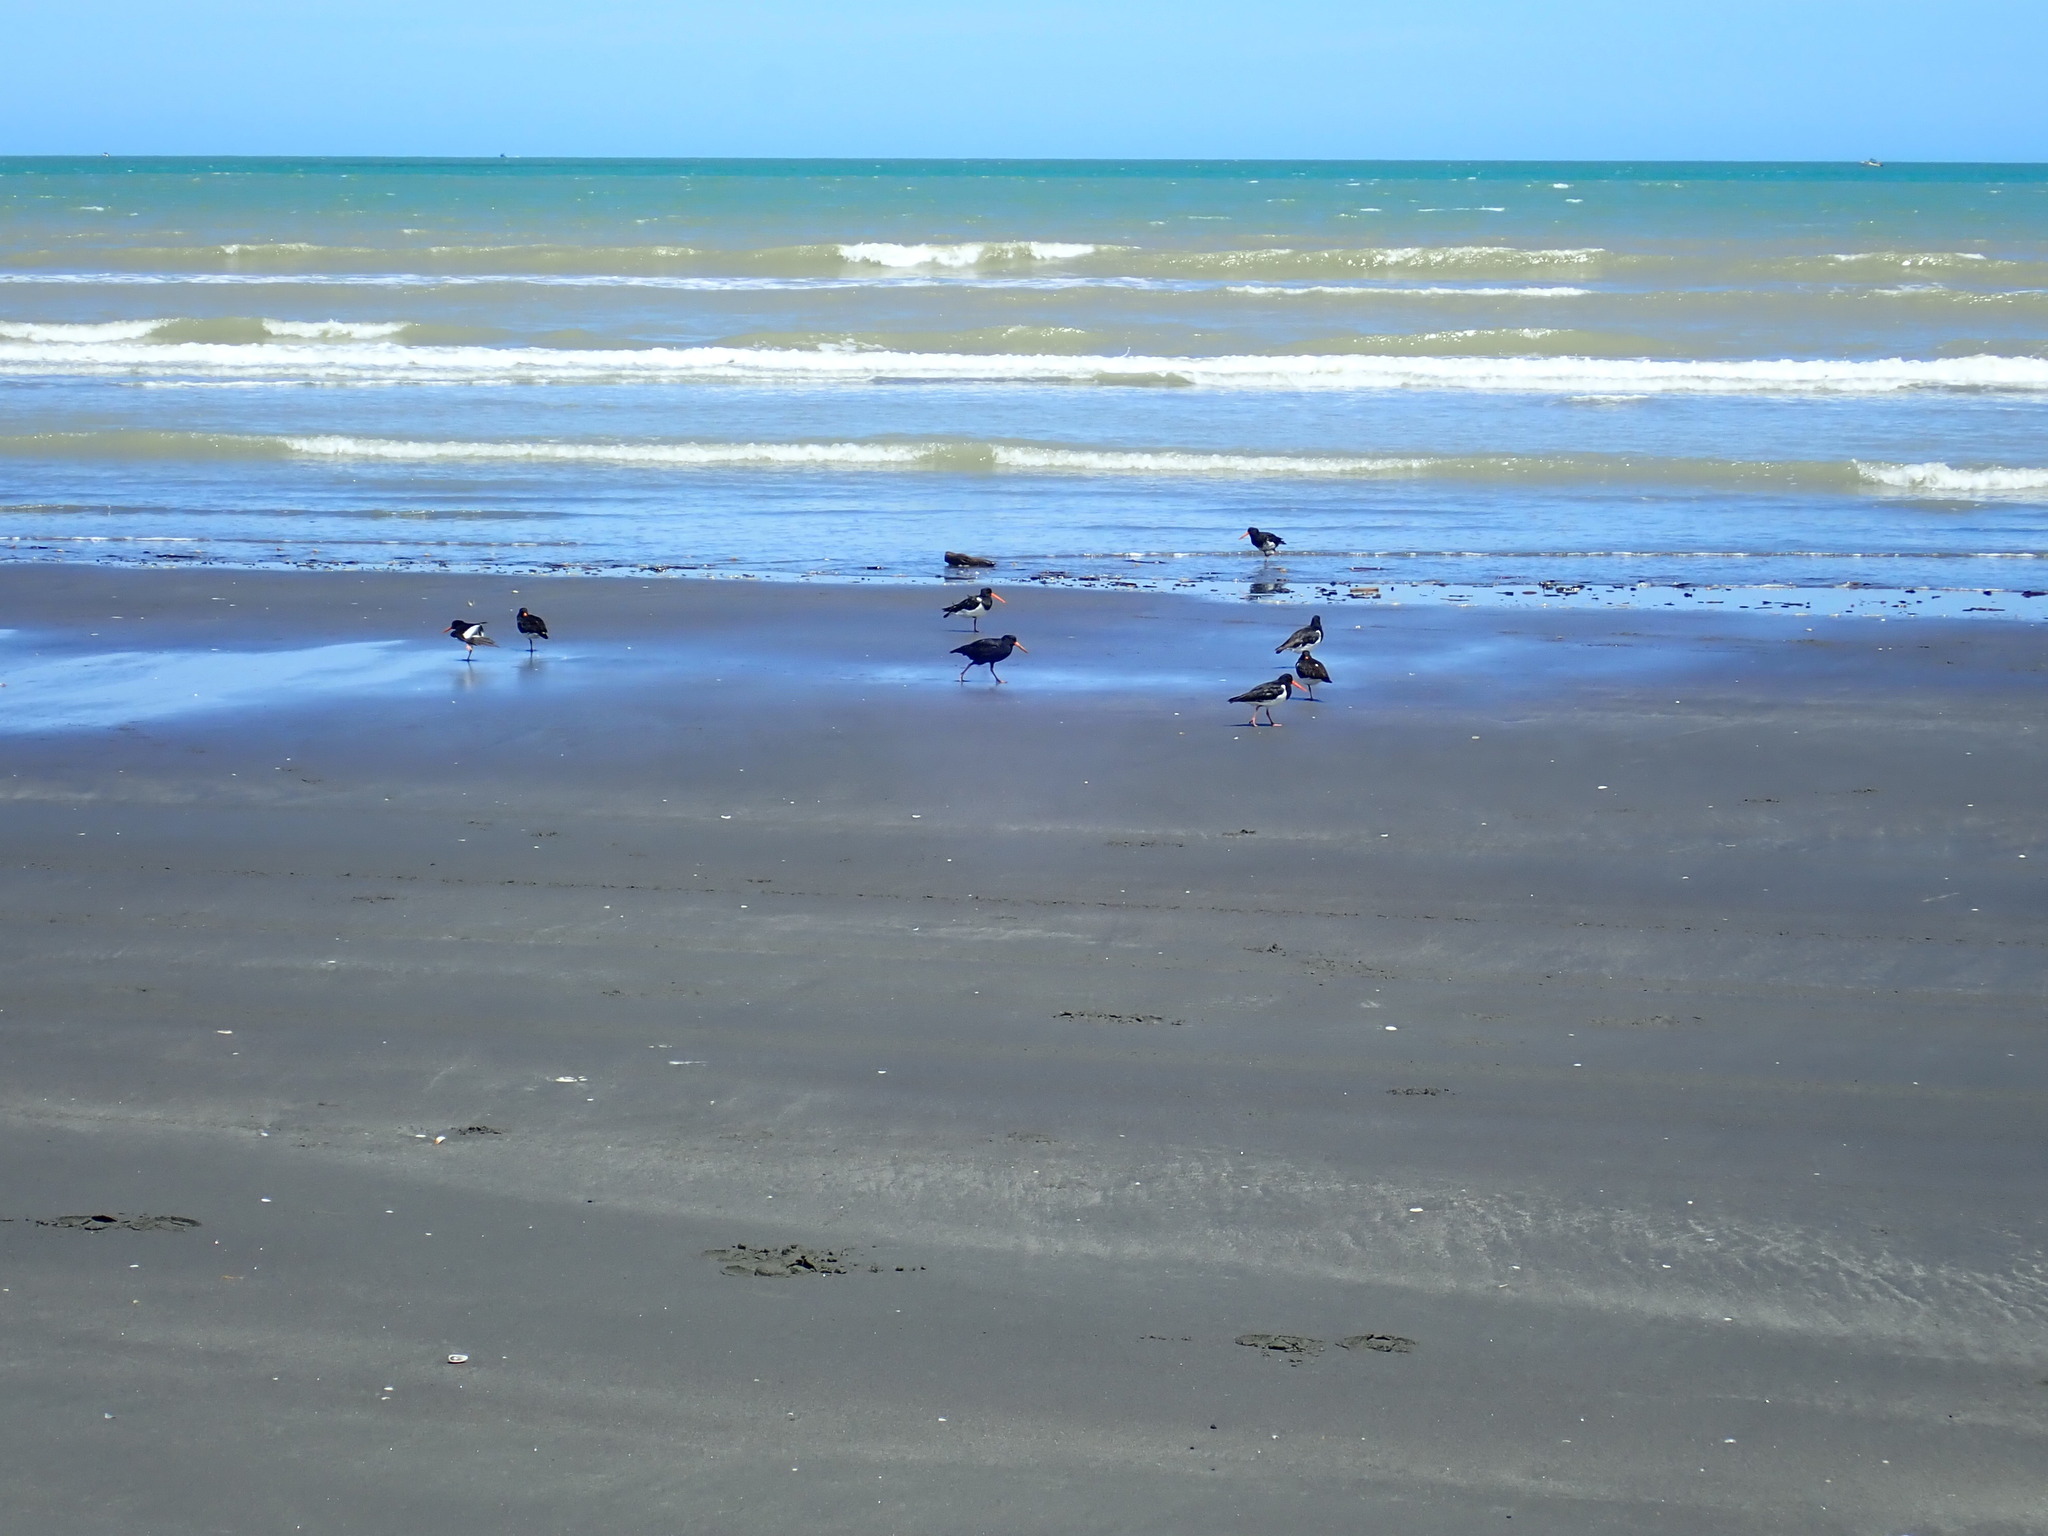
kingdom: Animalia
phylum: Chordata
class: Aves
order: Charadriiformes
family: Haematopodidae
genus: Haematopus
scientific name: Haematopus finschi
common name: South island oystercatcher
